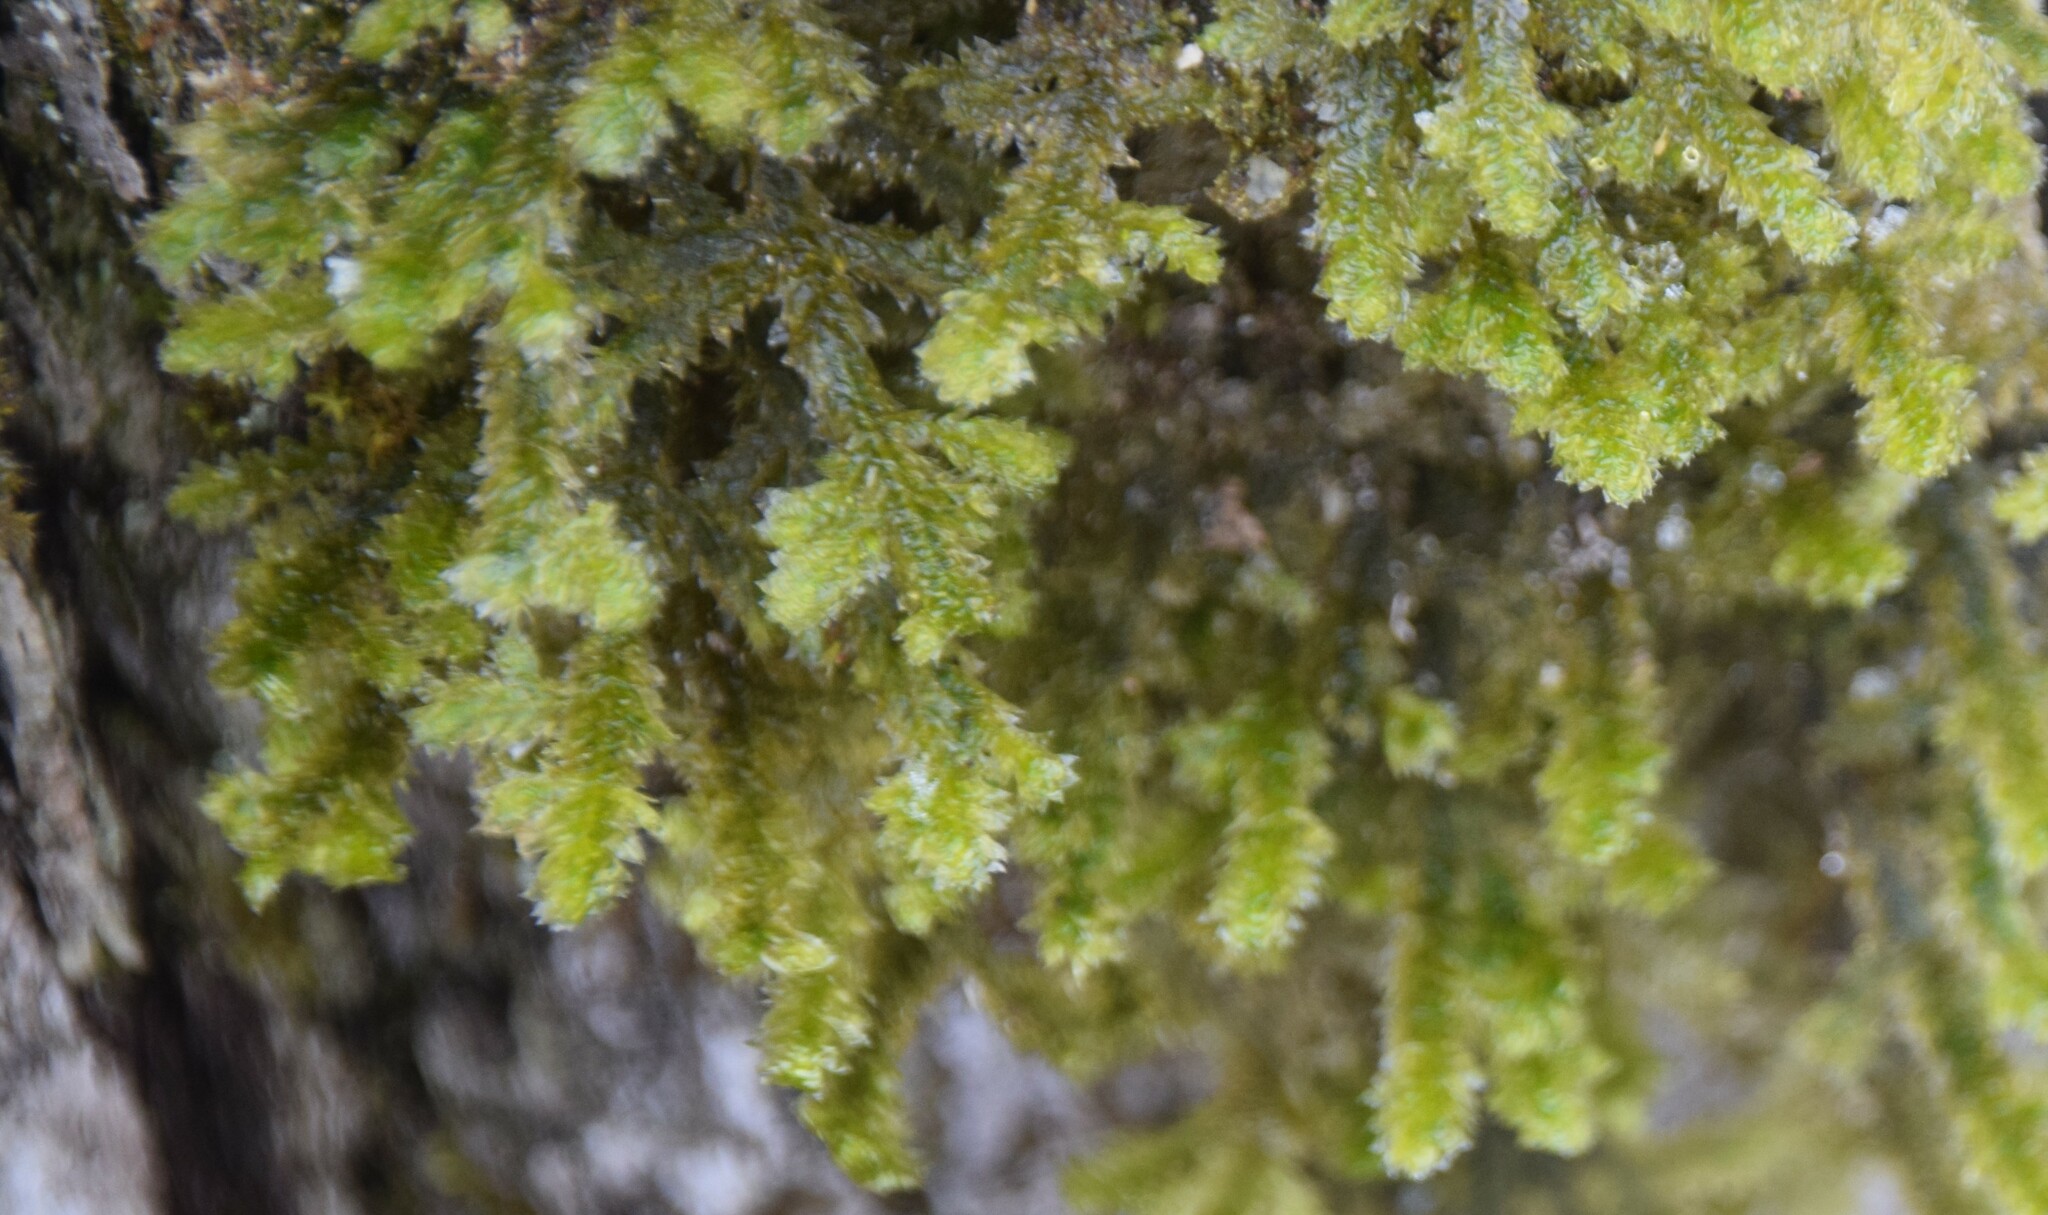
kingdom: Plantae
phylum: Bryophyta
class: Bryopsida
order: Hypnales
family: Neckeraceae
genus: Neckera
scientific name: Neckera pennata
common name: Feathery neckera
